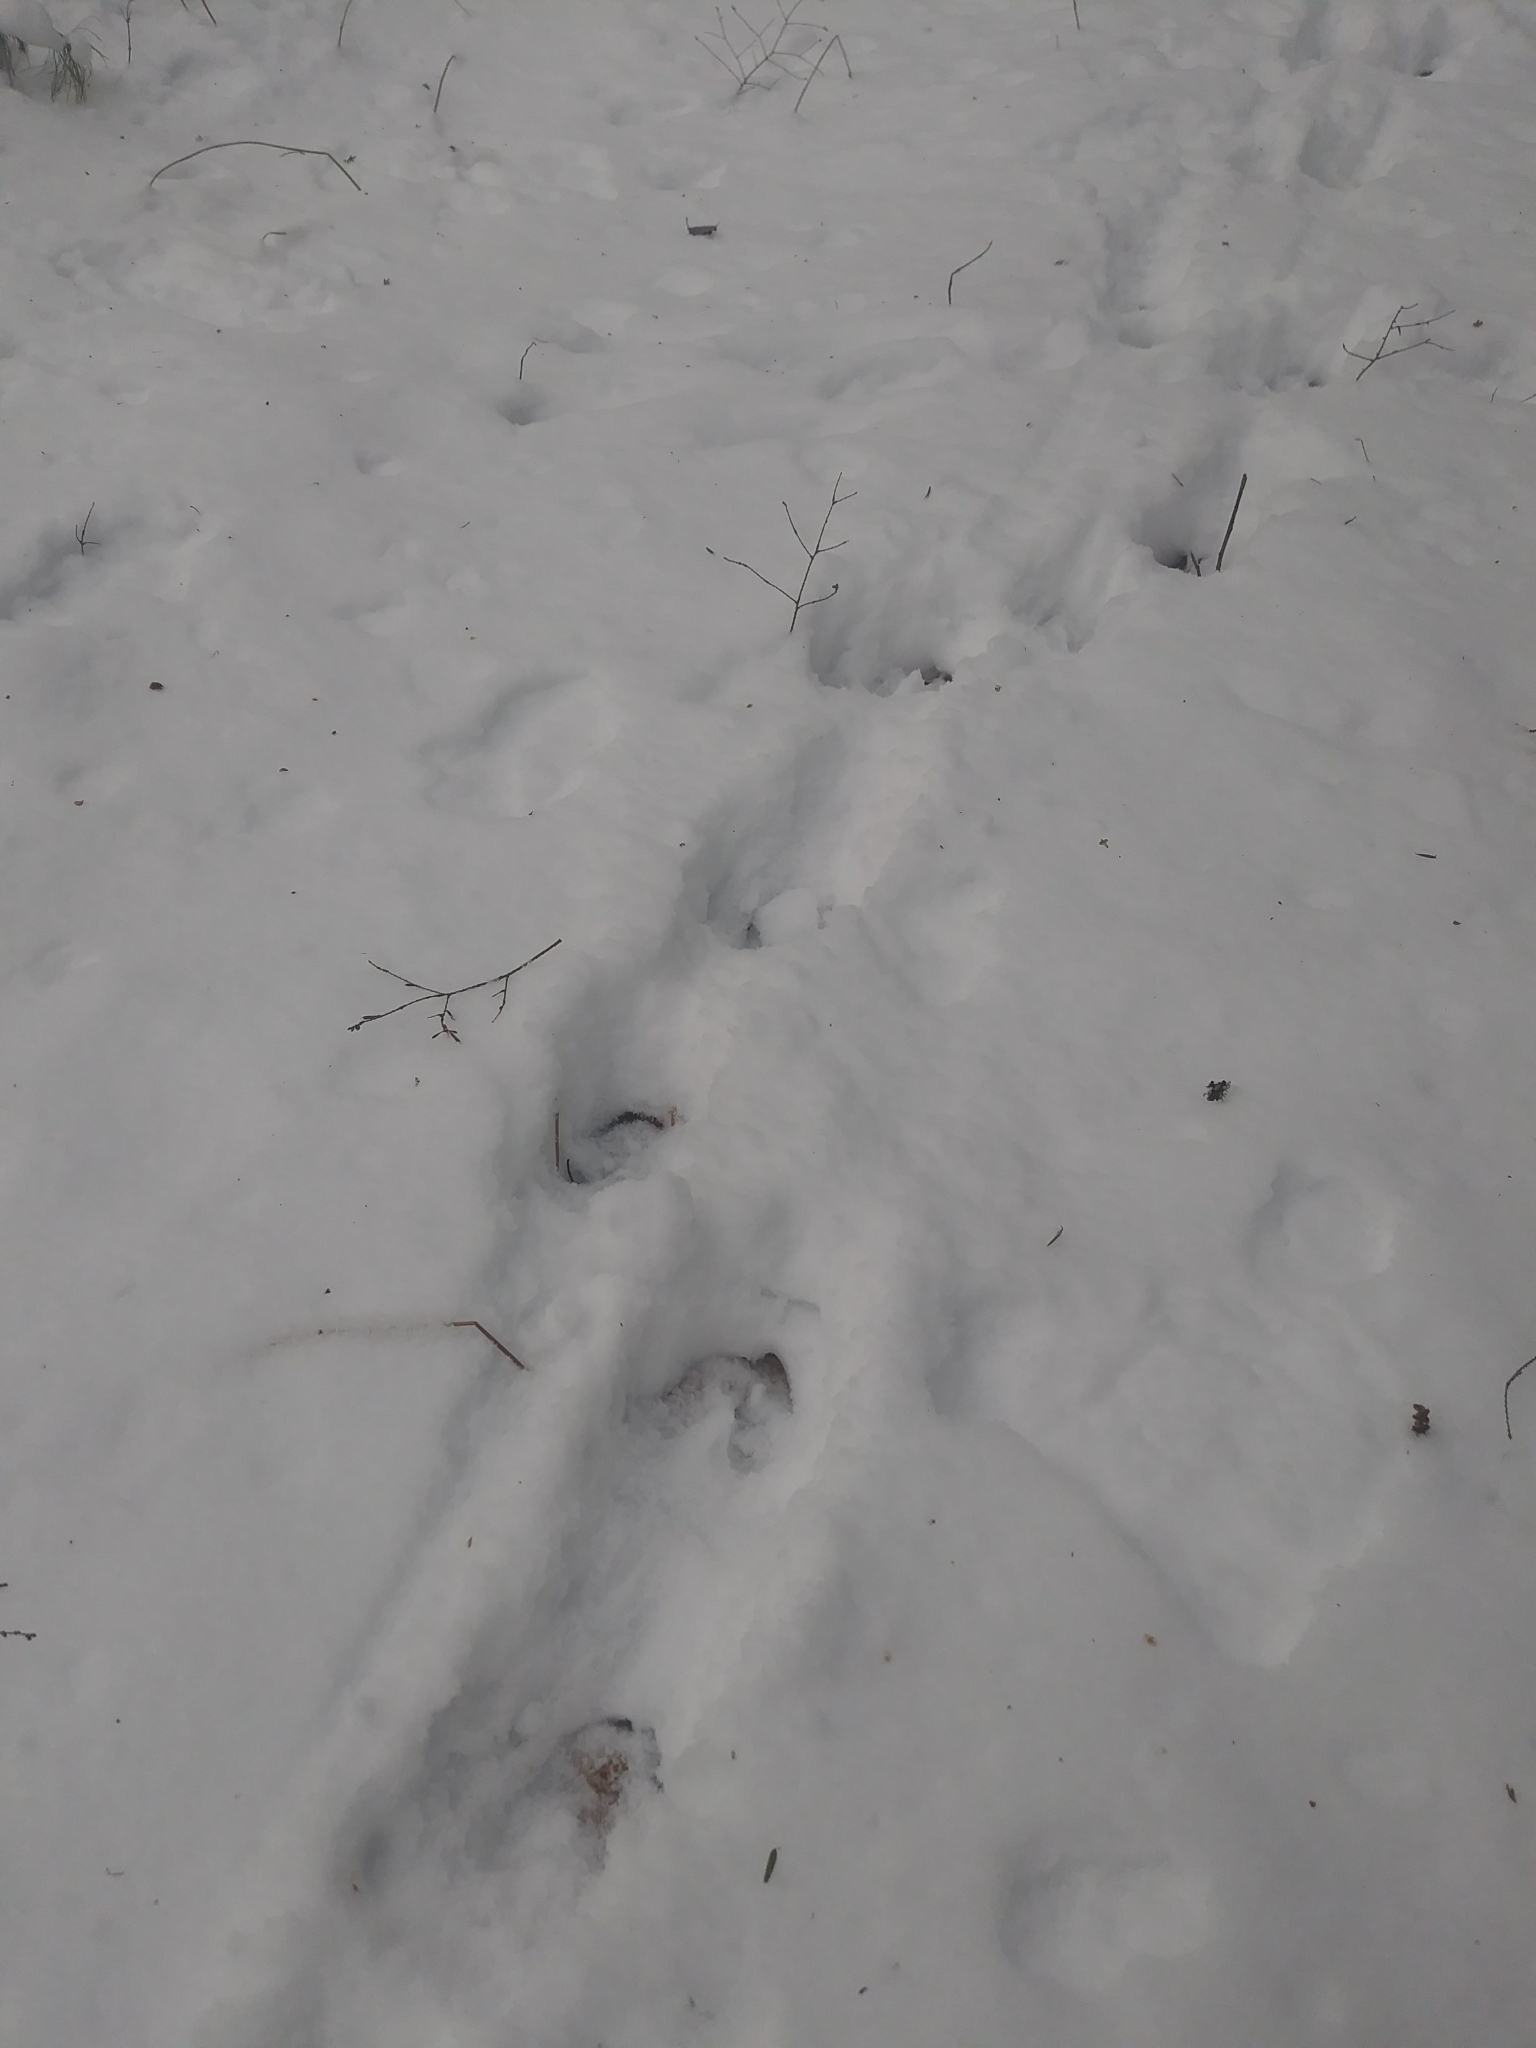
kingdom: Animalia
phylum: Chordata
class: Mammalia
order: Artiodactyla
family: Cervidae
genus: Odocoileus
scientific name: Odocoileus virginianus
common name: White-tailed deer
